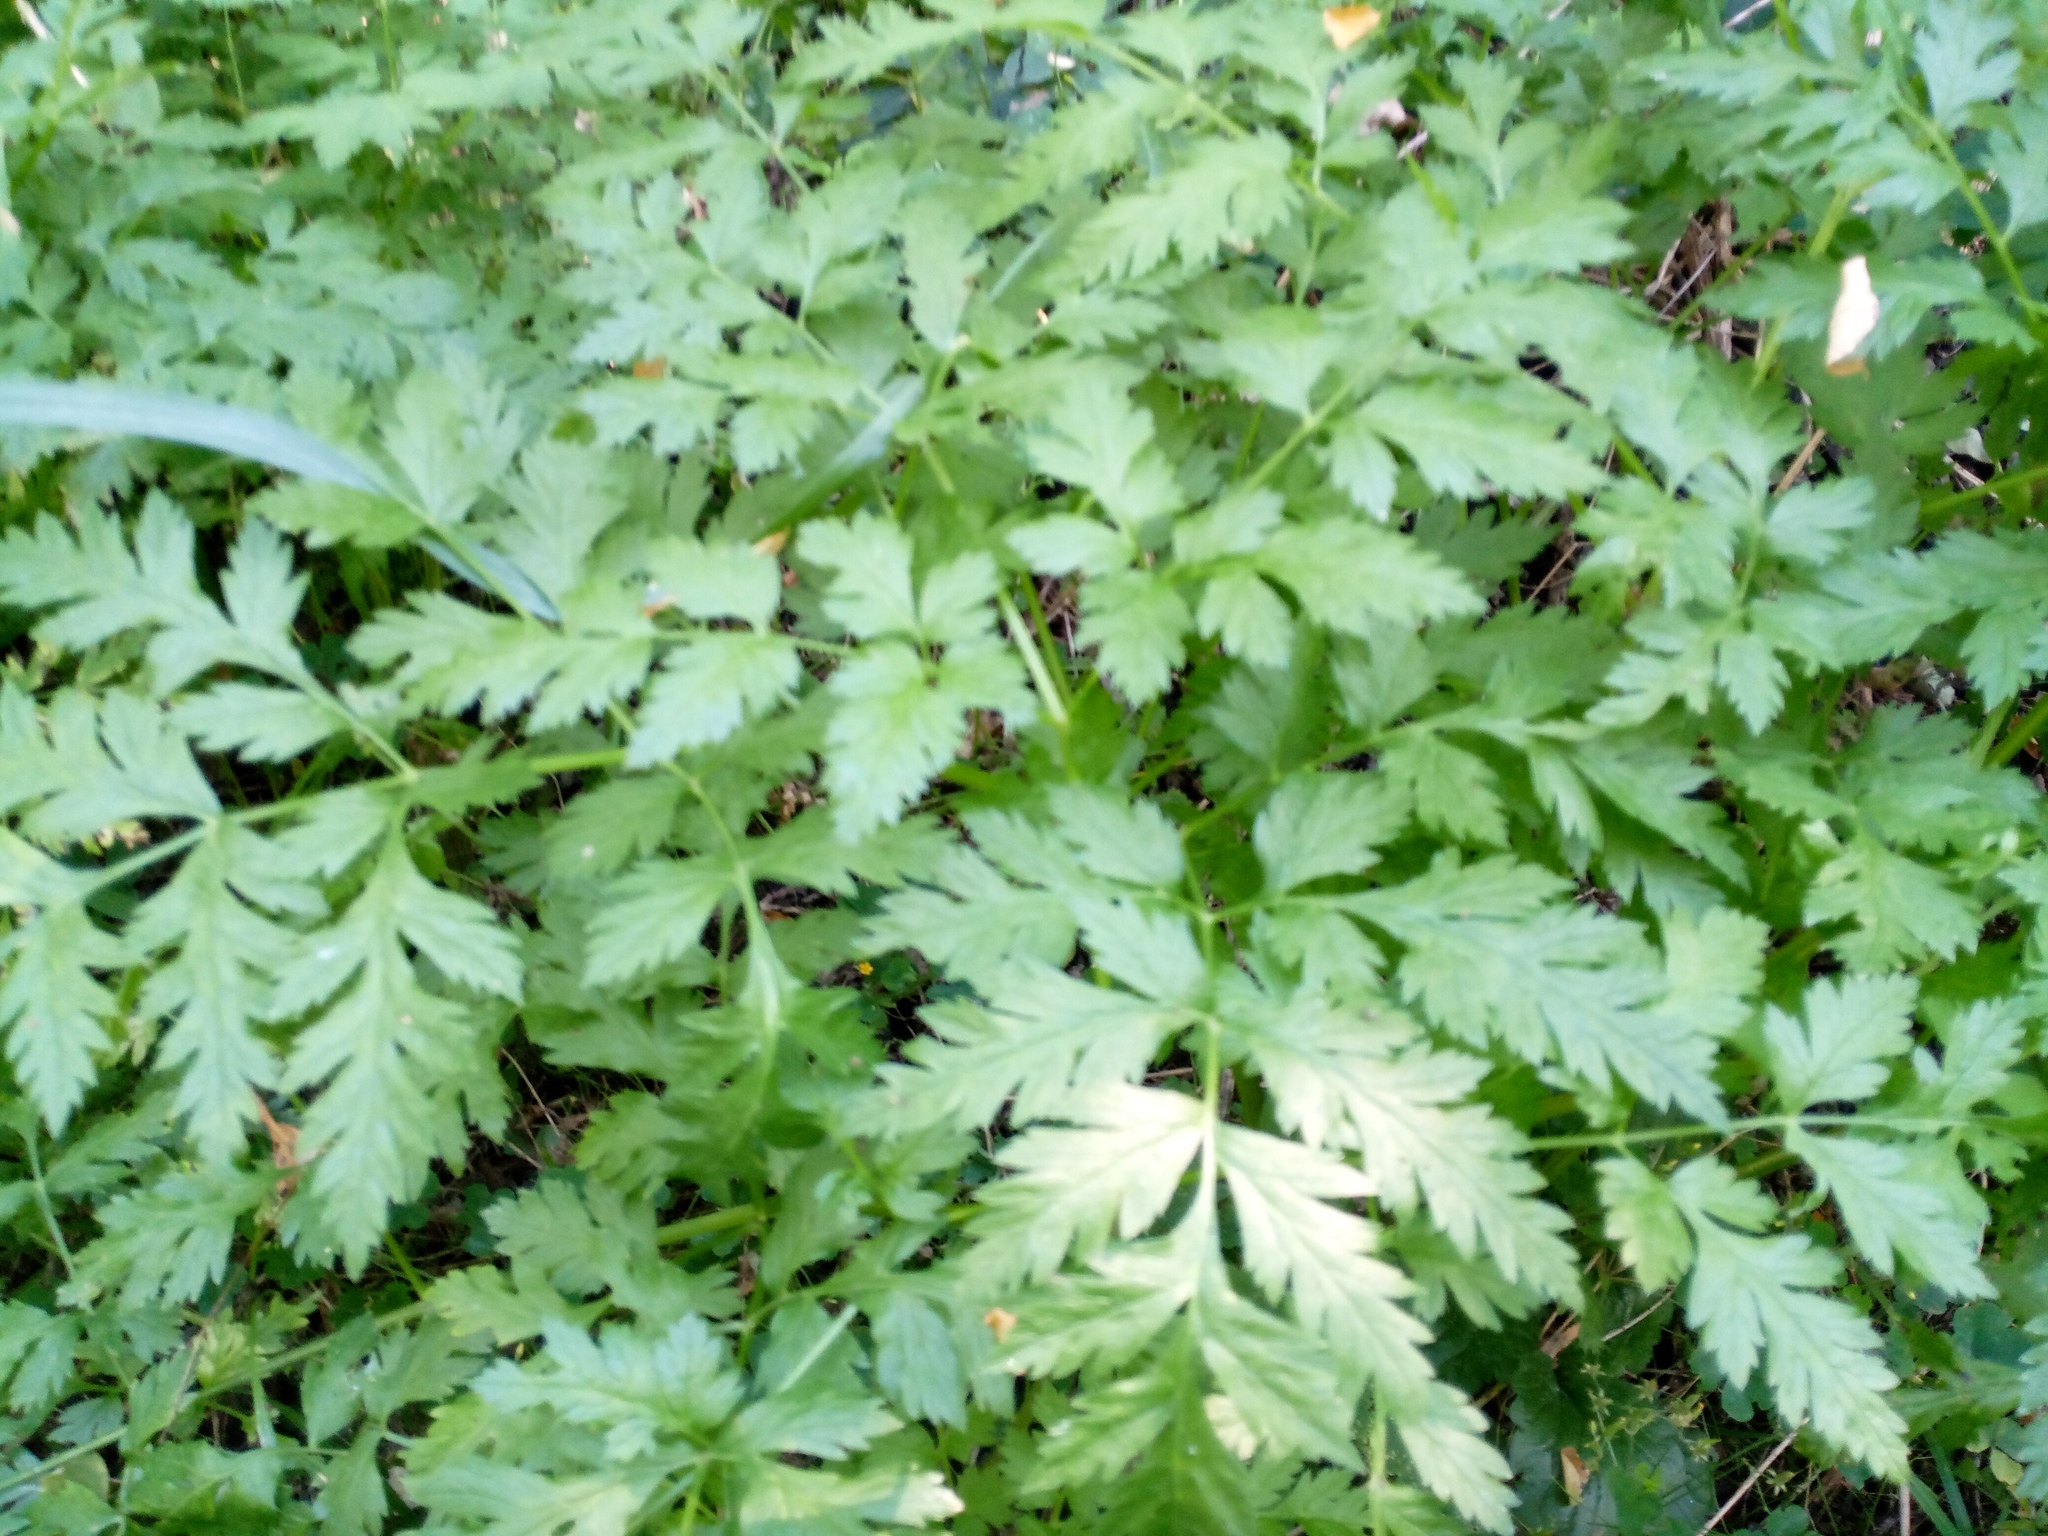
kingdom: Plantae
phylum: Tracheophyta
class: Magnoliopsida
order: Apiales
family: Apiaceae
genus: Anthriscus
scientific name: Anthriscus sylvestris
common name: Cow parsley
